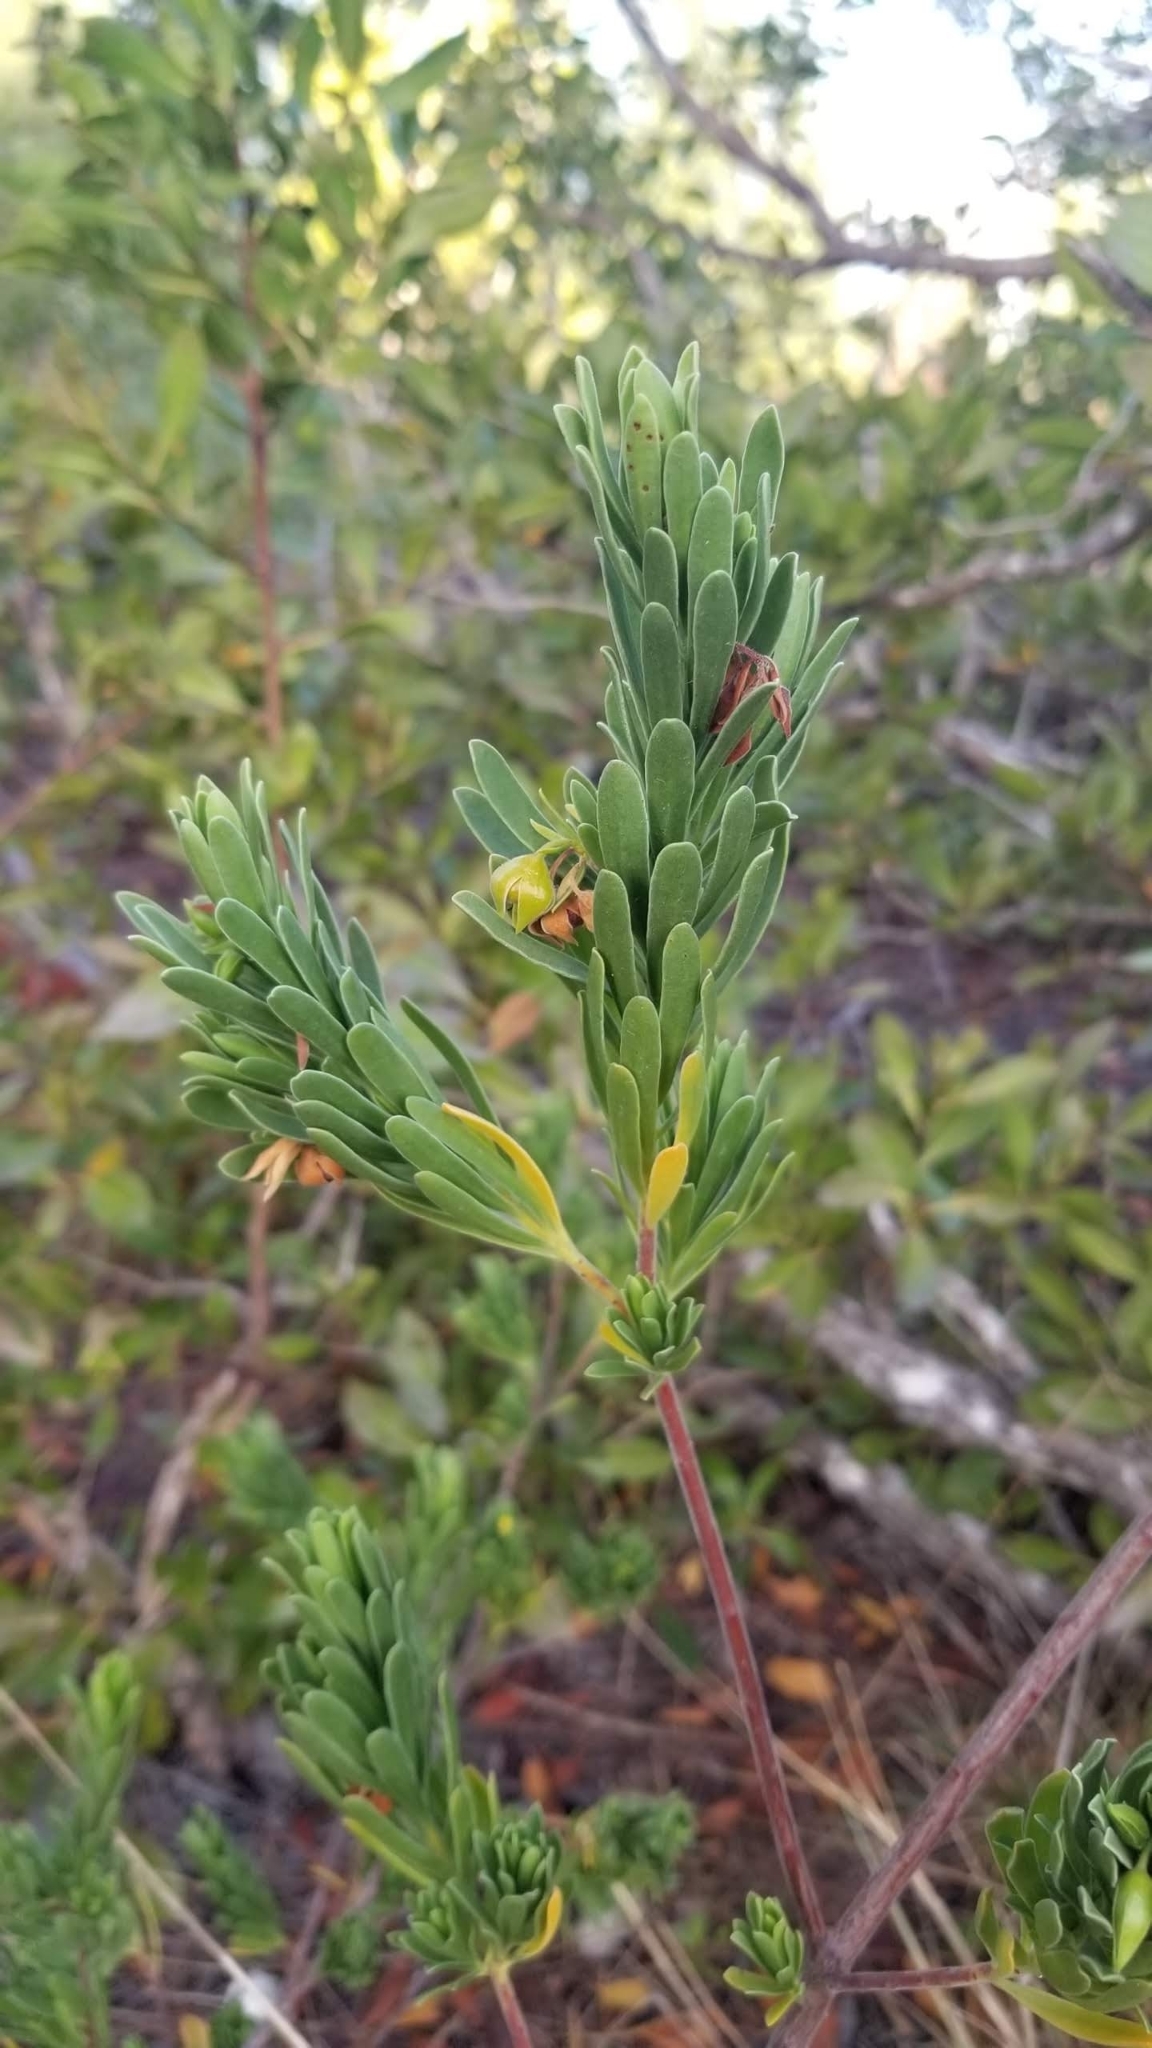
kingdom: Plantae
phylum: Tracheophyta
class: Magnoliopsida
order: Fabales
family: Surianaceae
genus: Suriana
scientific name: Suriana maritima
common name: Bay-cedar
